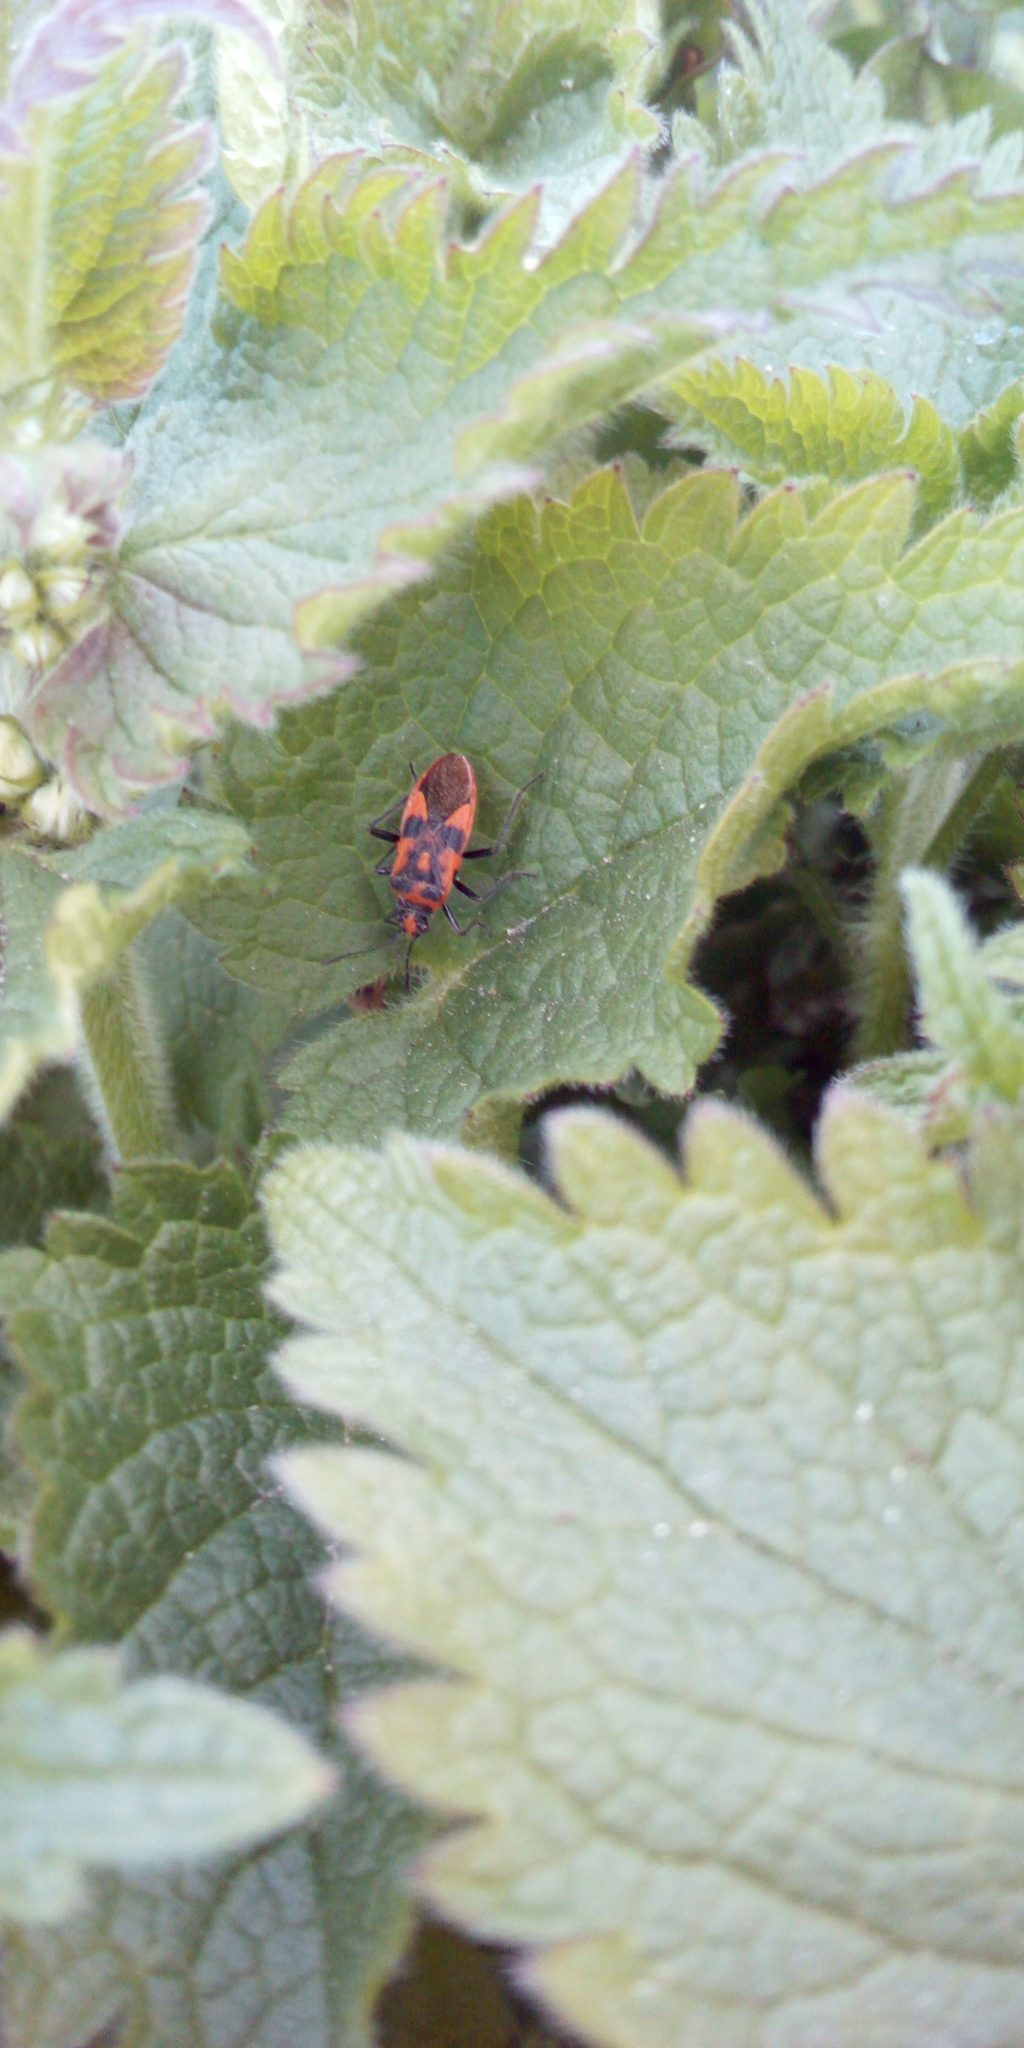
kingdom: Animalia
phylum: Arthropoda
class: Insecta
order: Hemiptera
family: Rhopalidae
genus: Corizus
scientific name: Corizus hyoscyami
